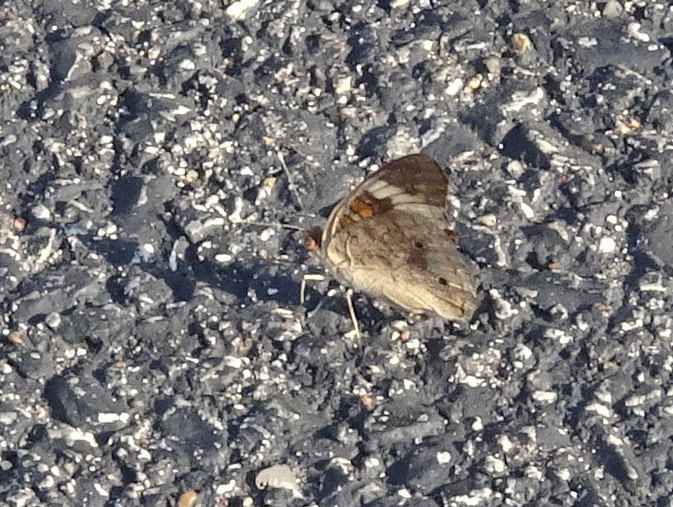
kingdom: Animalia
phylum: Arthropoda
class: Insecta
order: Lepidoptera
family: Nymphalidae
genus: Junonia
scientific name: Junonia coenia
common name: Common buckeye
